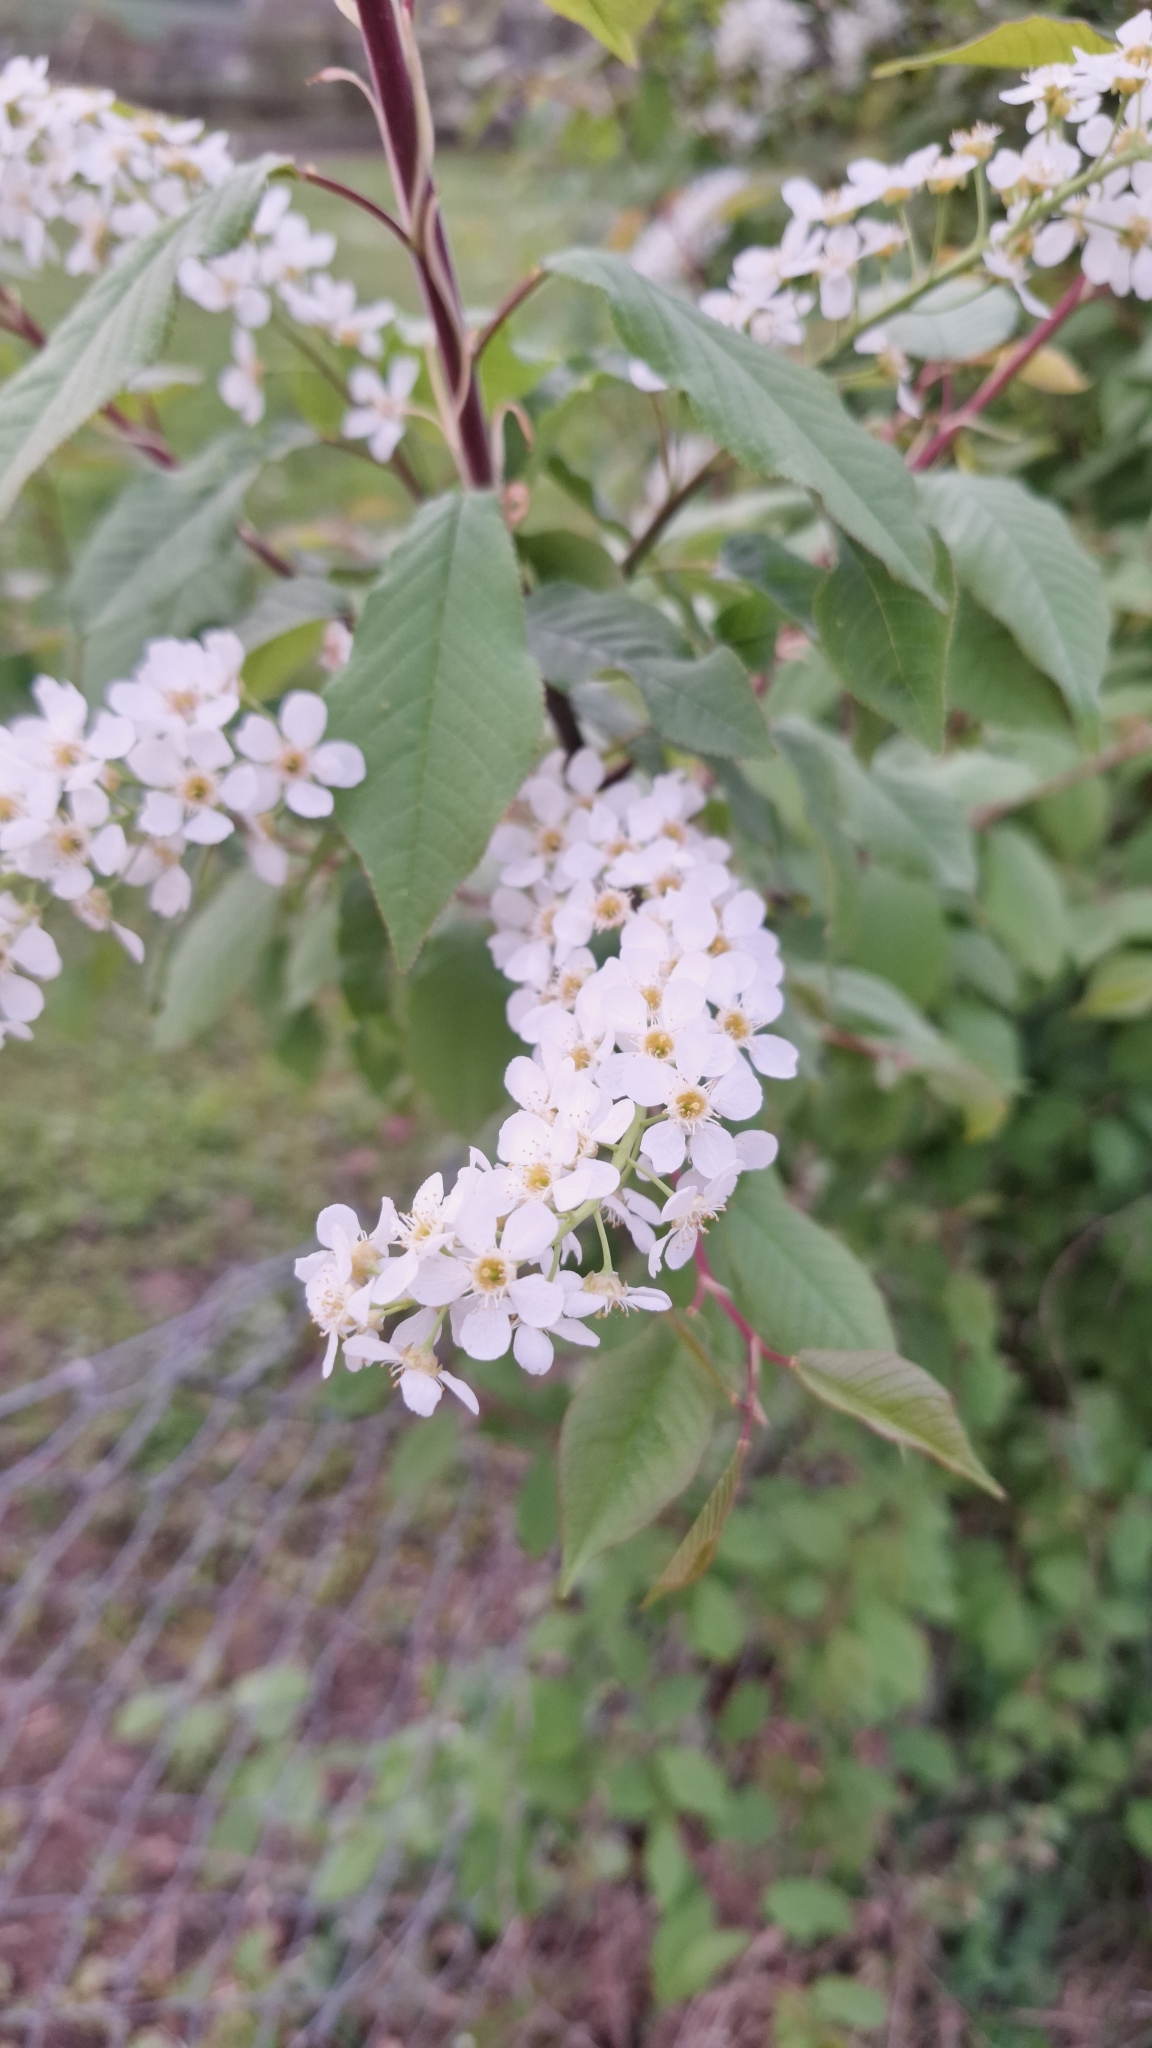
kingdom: Plantae
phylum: Tracheophyta
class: Magnoliopsida
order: Rosales
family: Rosaceae
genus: Prunus
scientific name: Prunus padus
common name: Bird cherry
